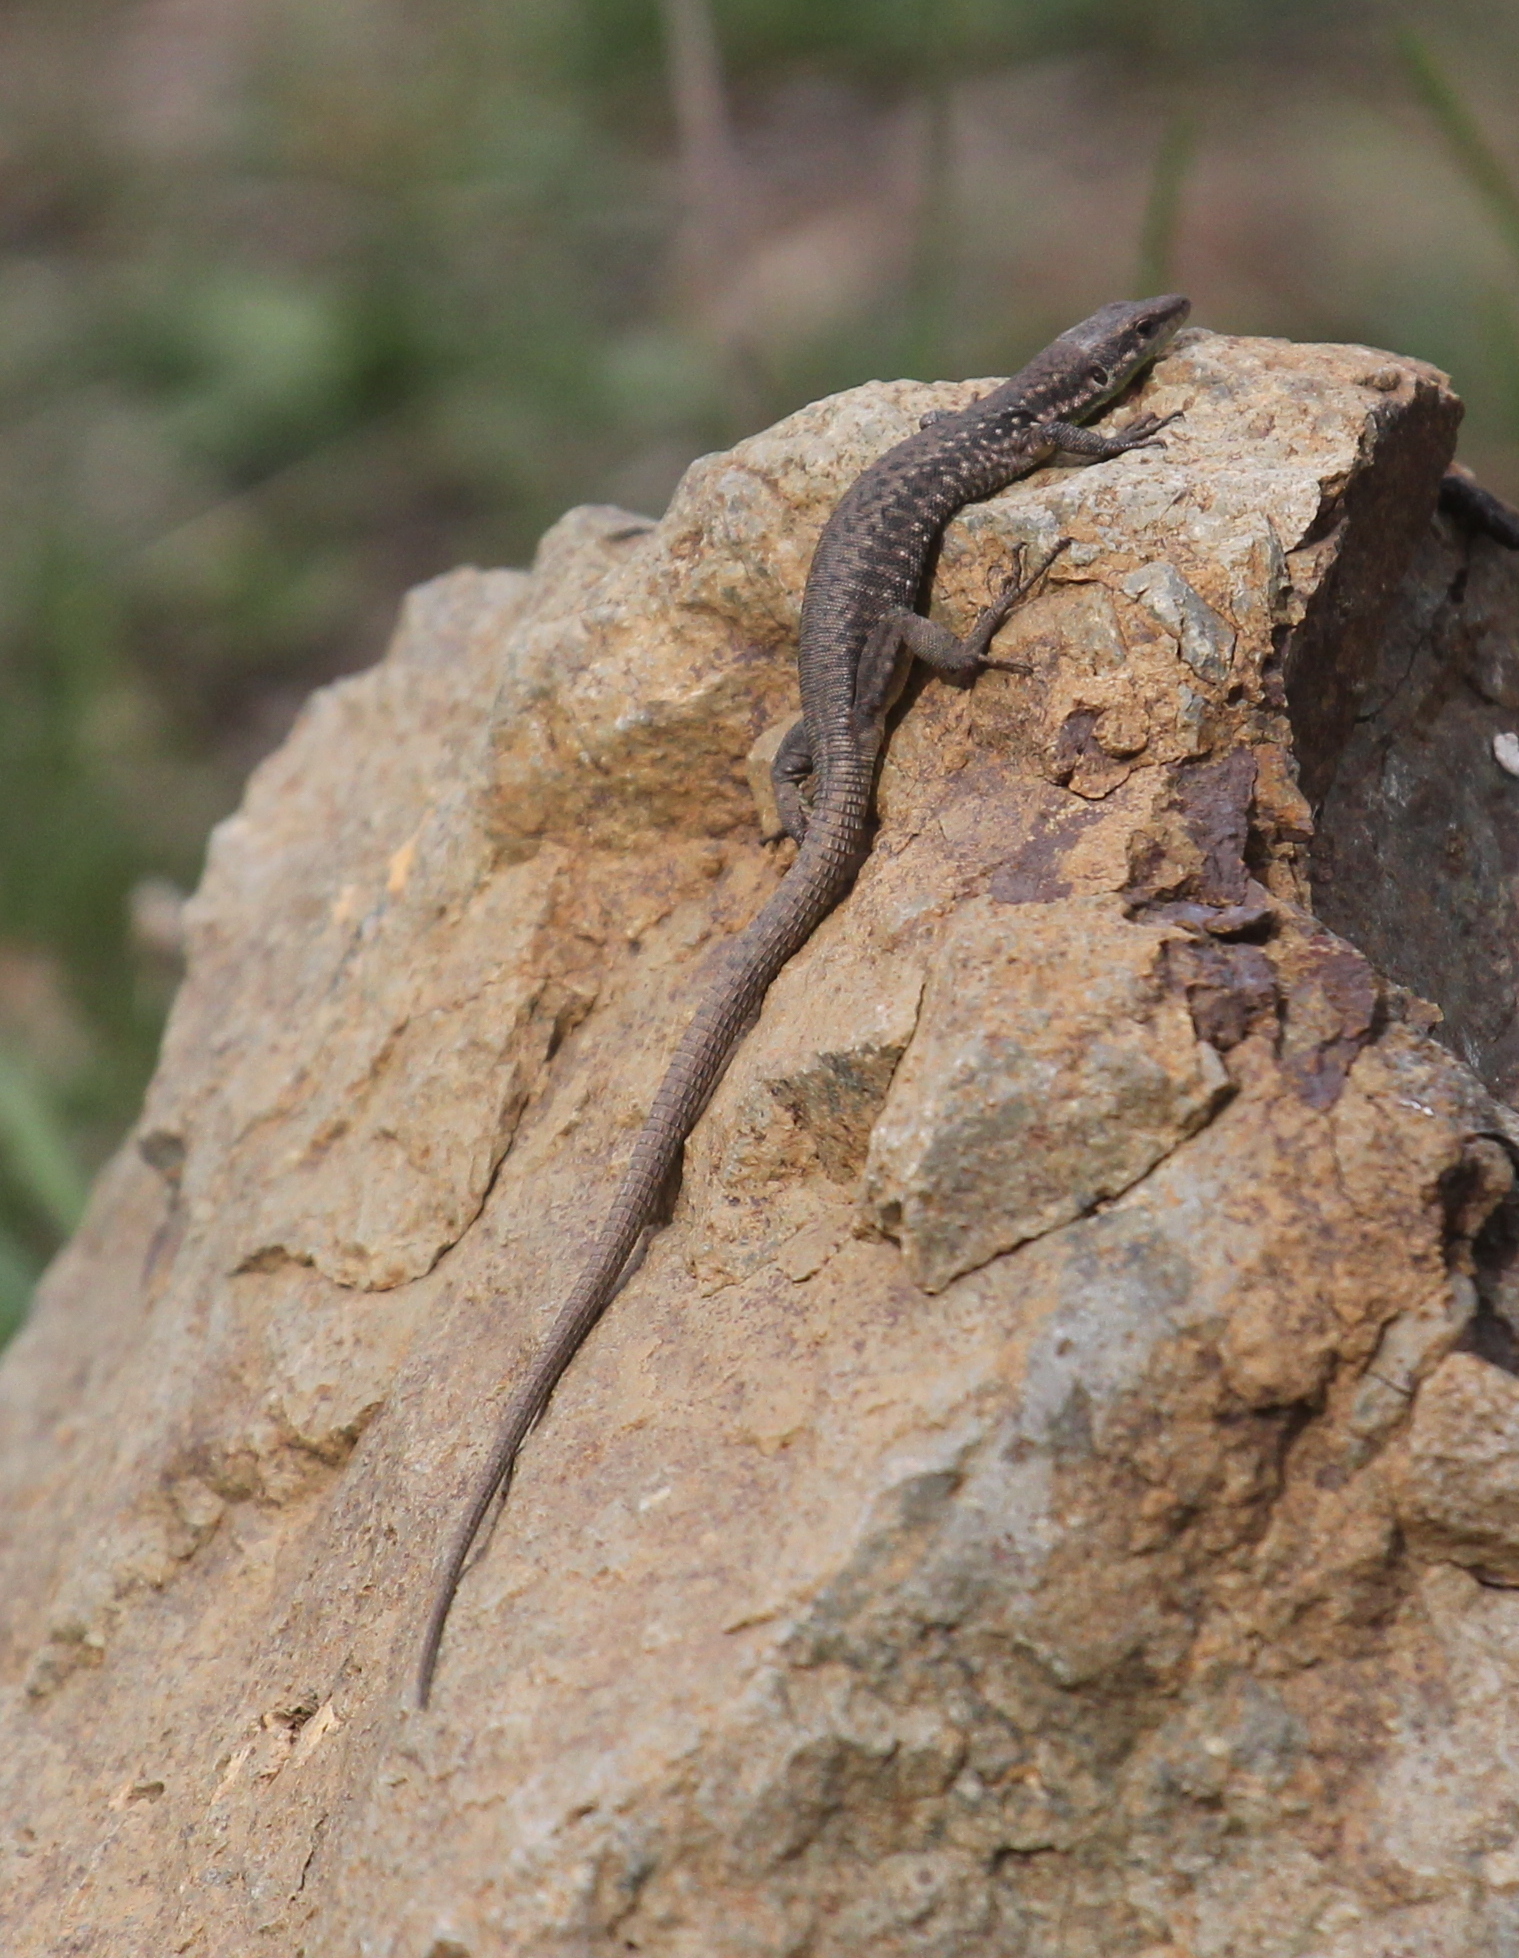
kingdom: Animalia
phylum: Chordata
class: Squamata
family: Lacertidae
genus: Darevskia
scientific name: Darevskia raddei
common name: Radde's lizard
